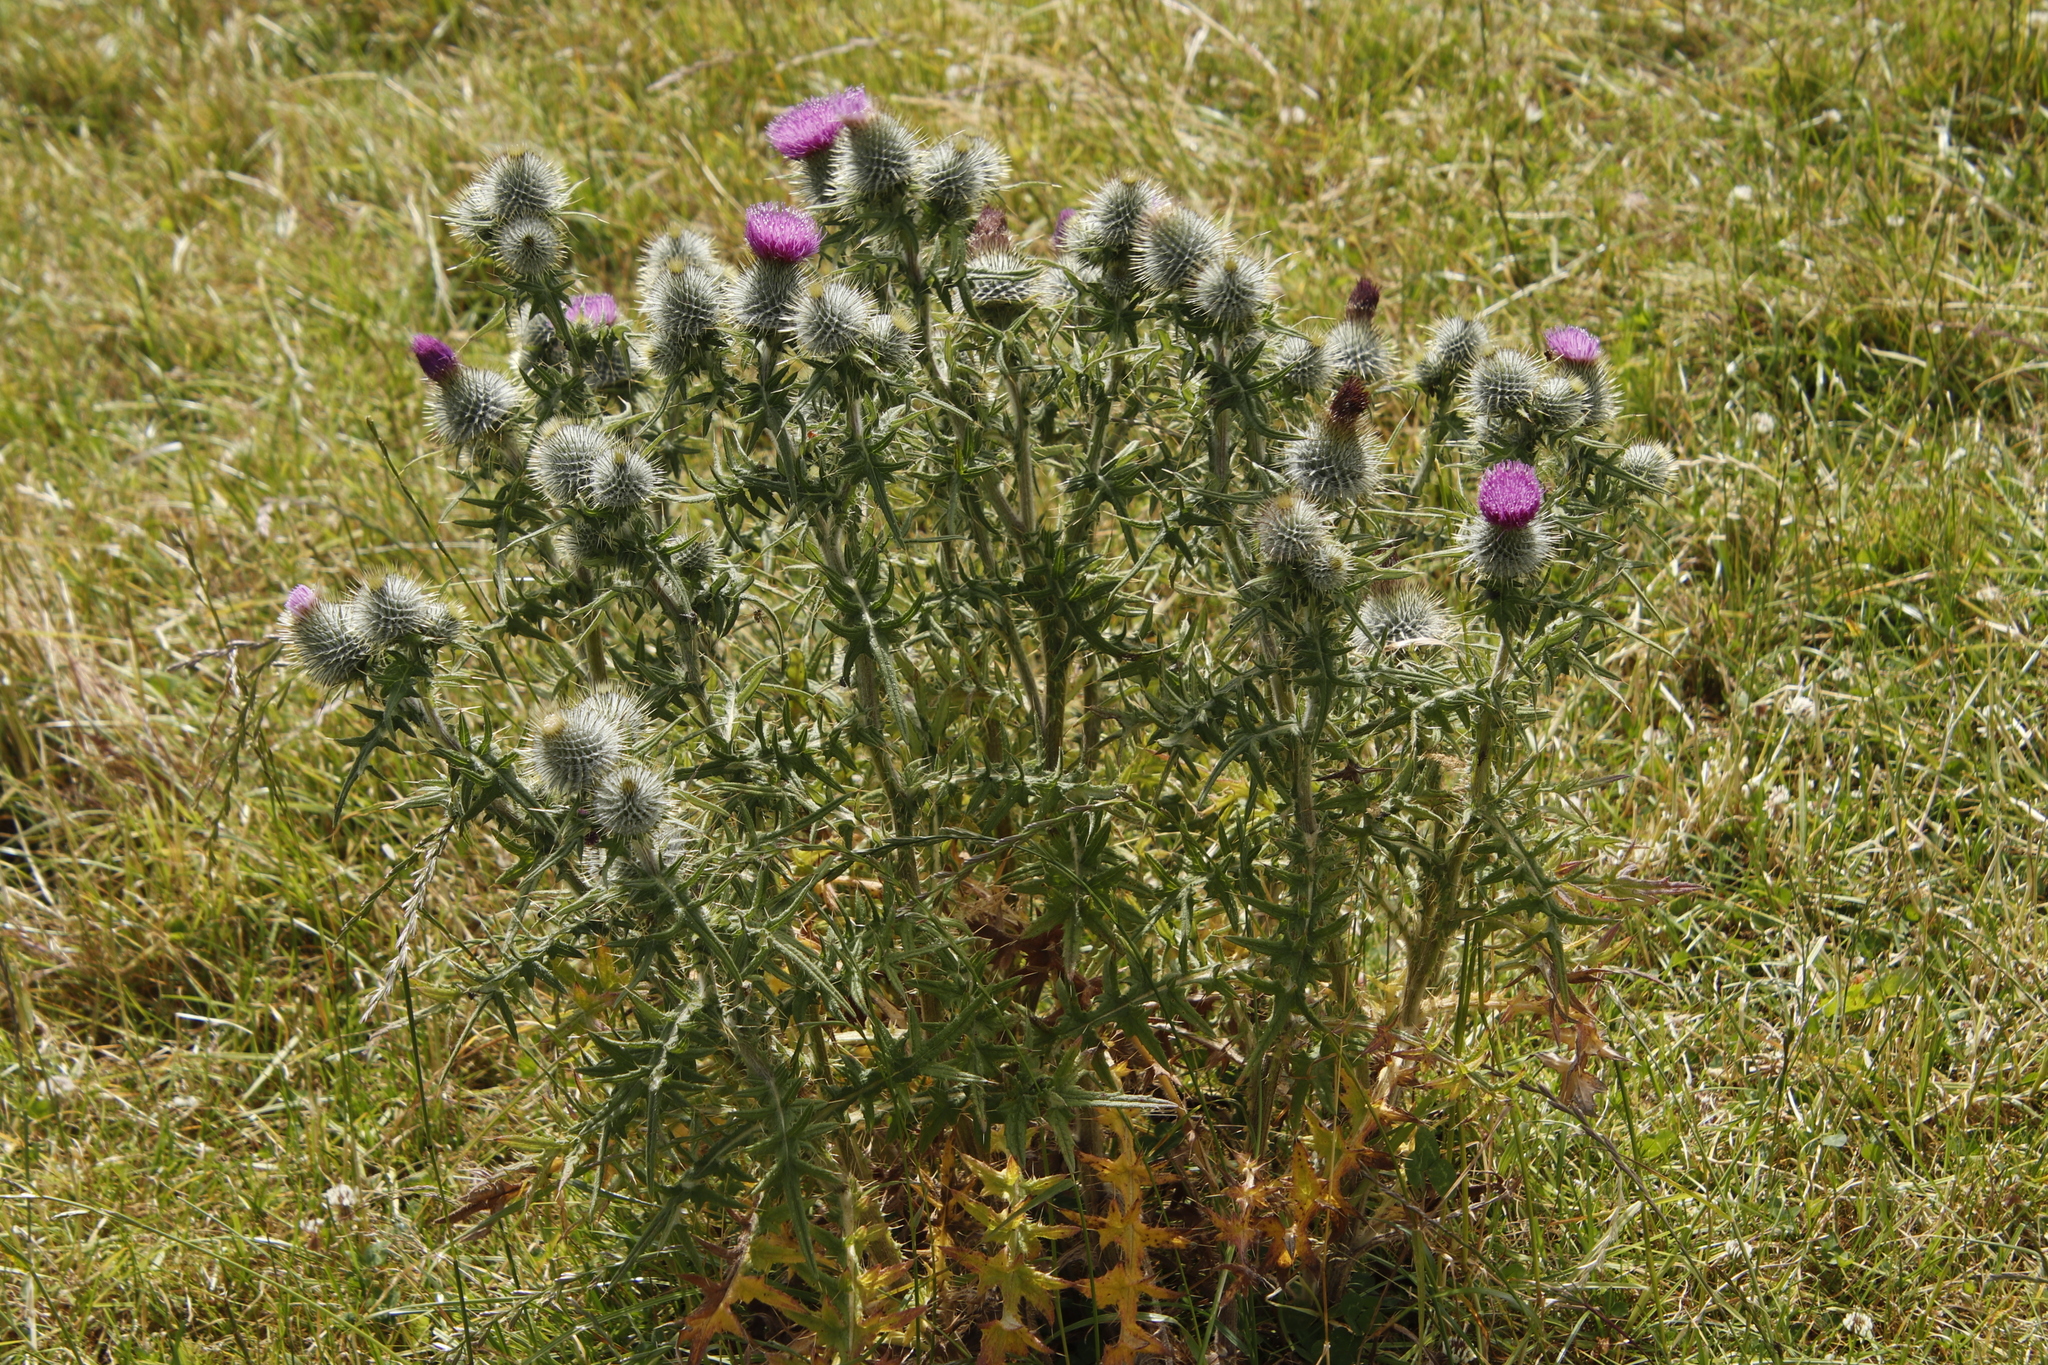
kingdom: Plantae
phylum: Tracheophyta
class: Magnoliopsida
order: Asterales
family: Asteraceae
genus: Cirsium
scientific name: Cirsium vulgare
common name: Bull thistle
